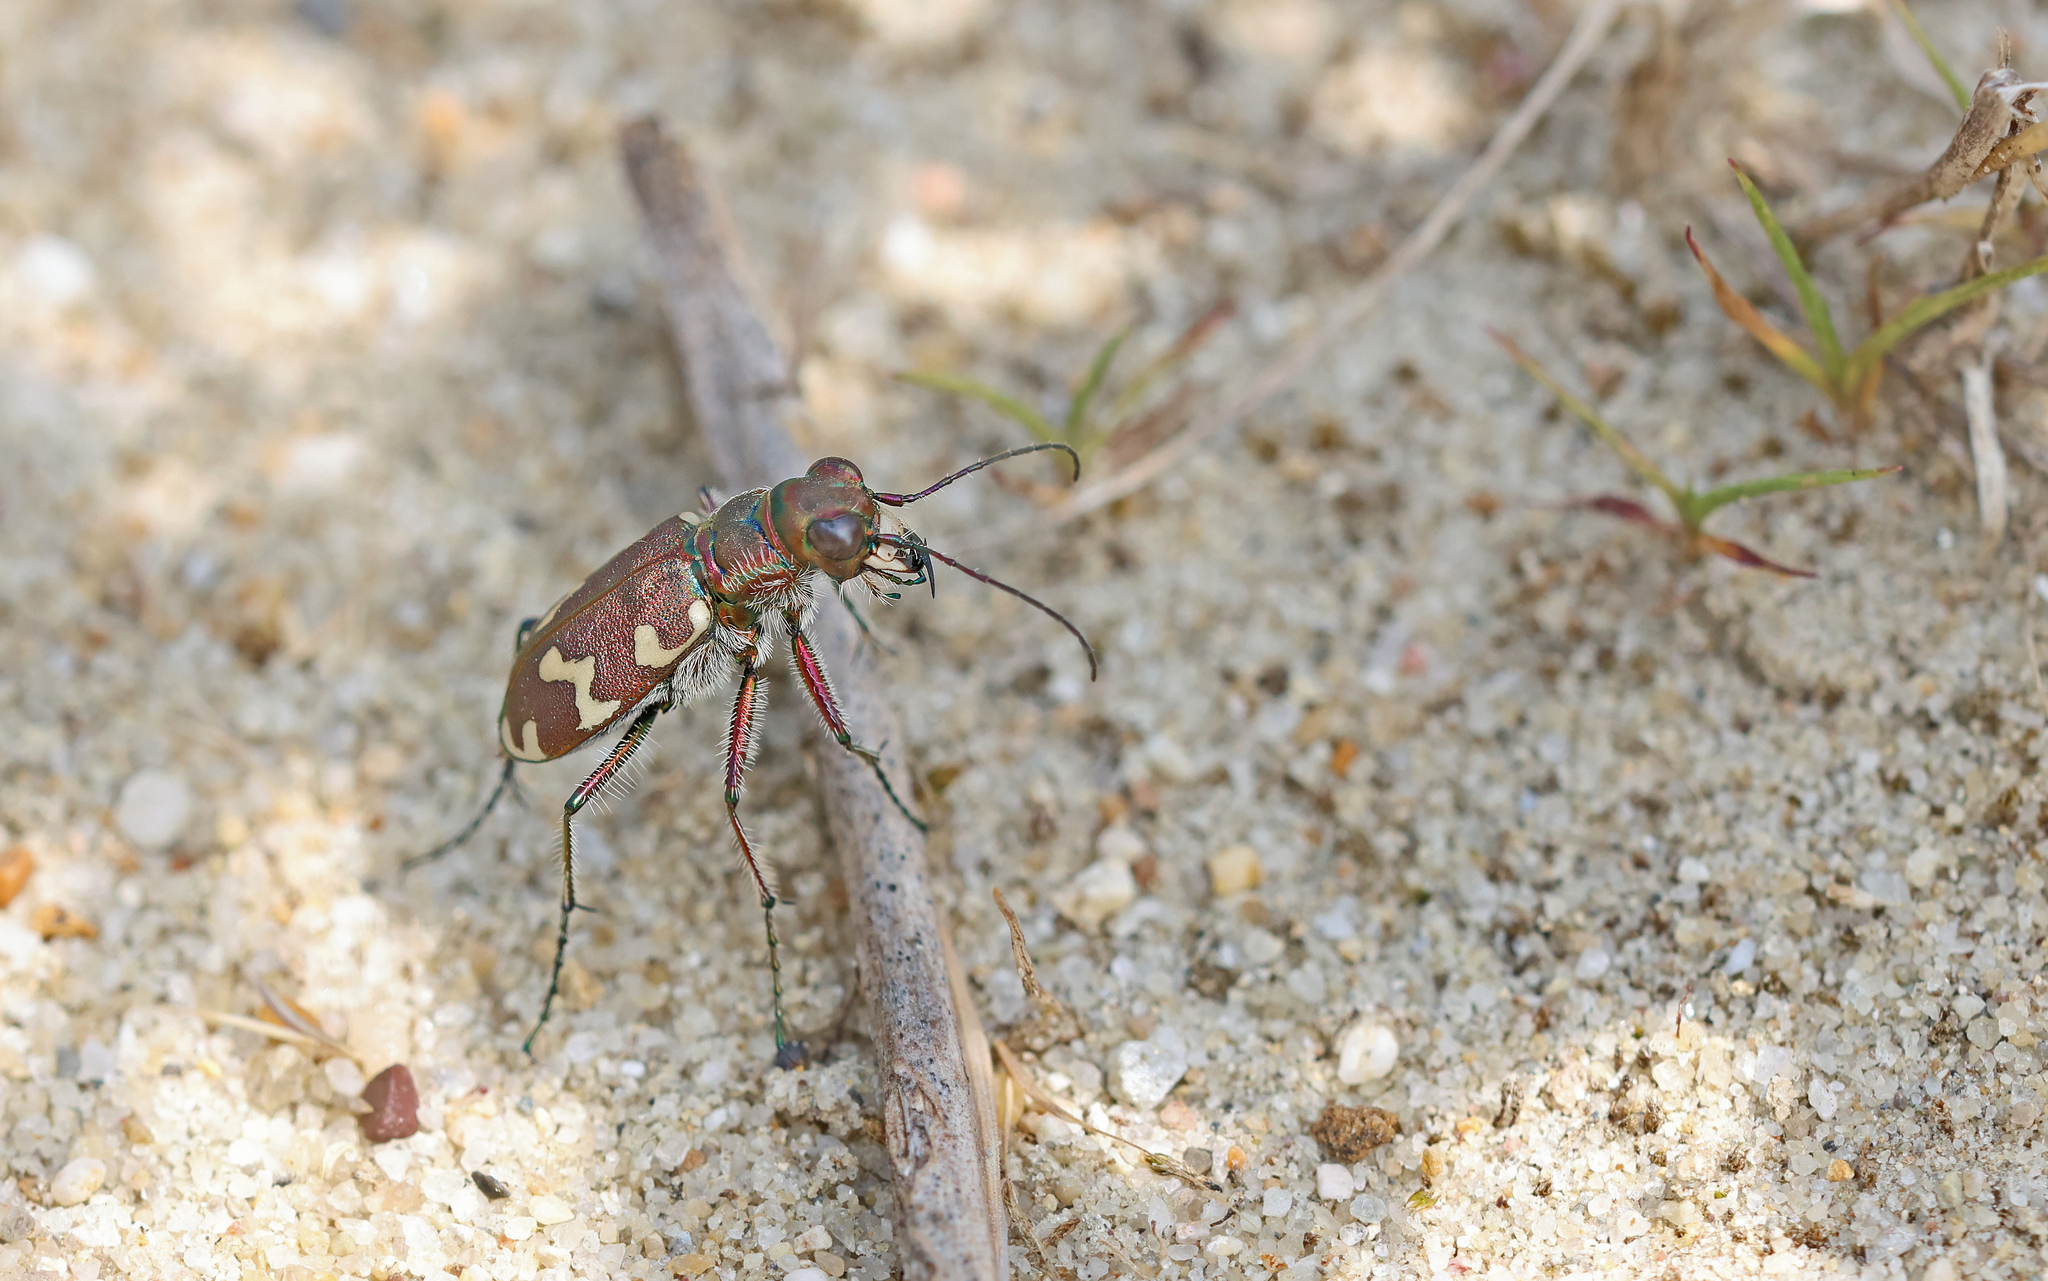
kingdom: Animalia
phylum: Arthropoda
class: Insecta
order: Coleoptera
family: Carabidae
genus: Cicindela
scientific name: Cicindela hybrida
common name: Northern dune tiger beetle
